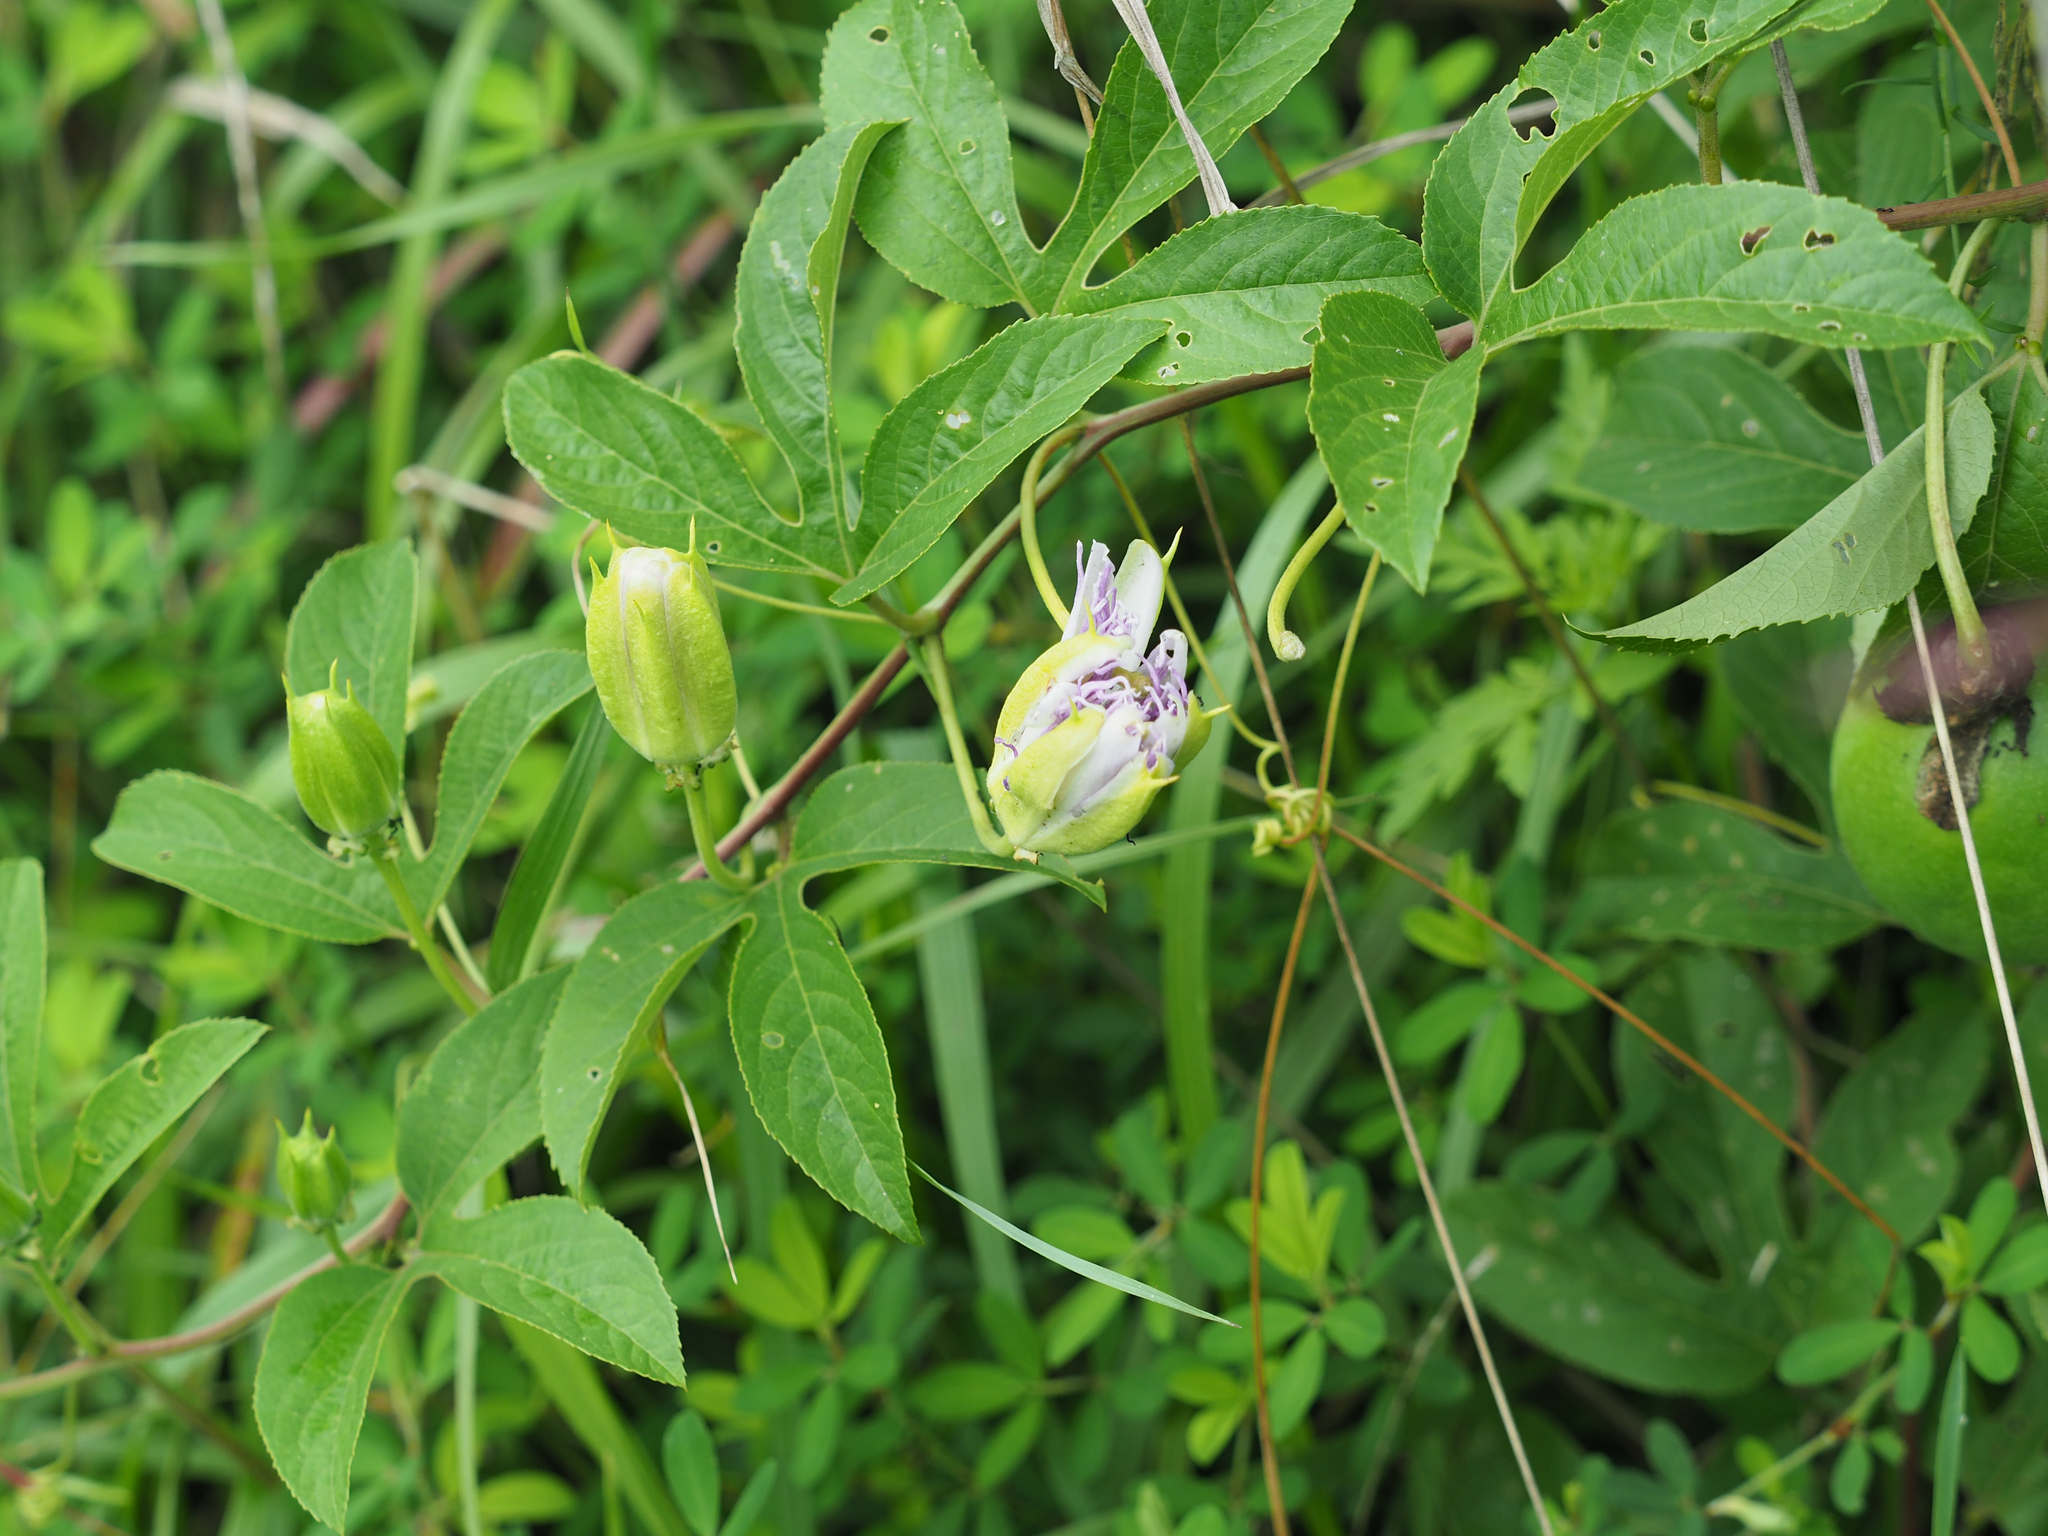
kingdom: Plantae
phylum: Tracheophyta
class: Magnoliopsida
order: Malpighiales
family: Passifloraceae
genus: Passiflora
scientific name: Passiflora incarnata
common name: Apricot-vine
